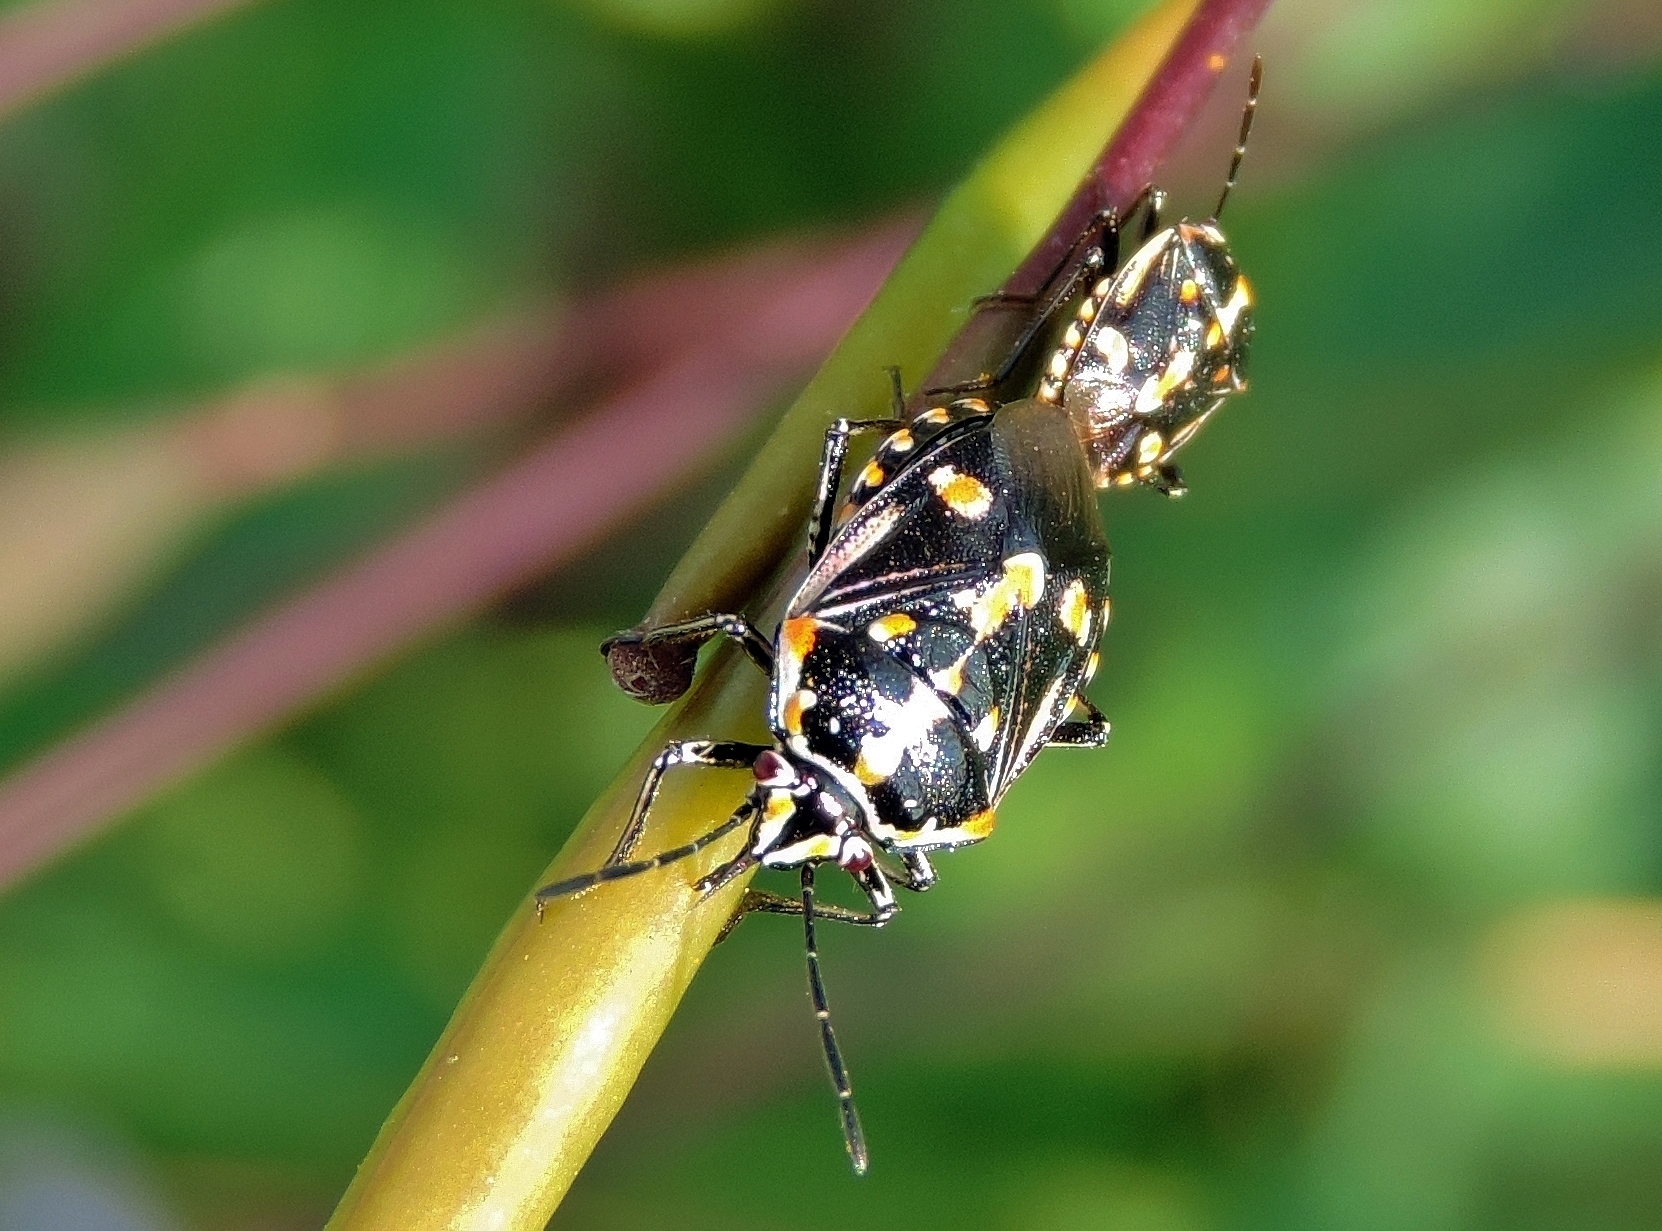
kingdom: Animalia
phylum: Arthropoda
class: Insecta
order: Hemiptera
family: Pentatomidae
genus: Bagrada
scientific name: Bagrada hilaris
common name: Bagrada bug
